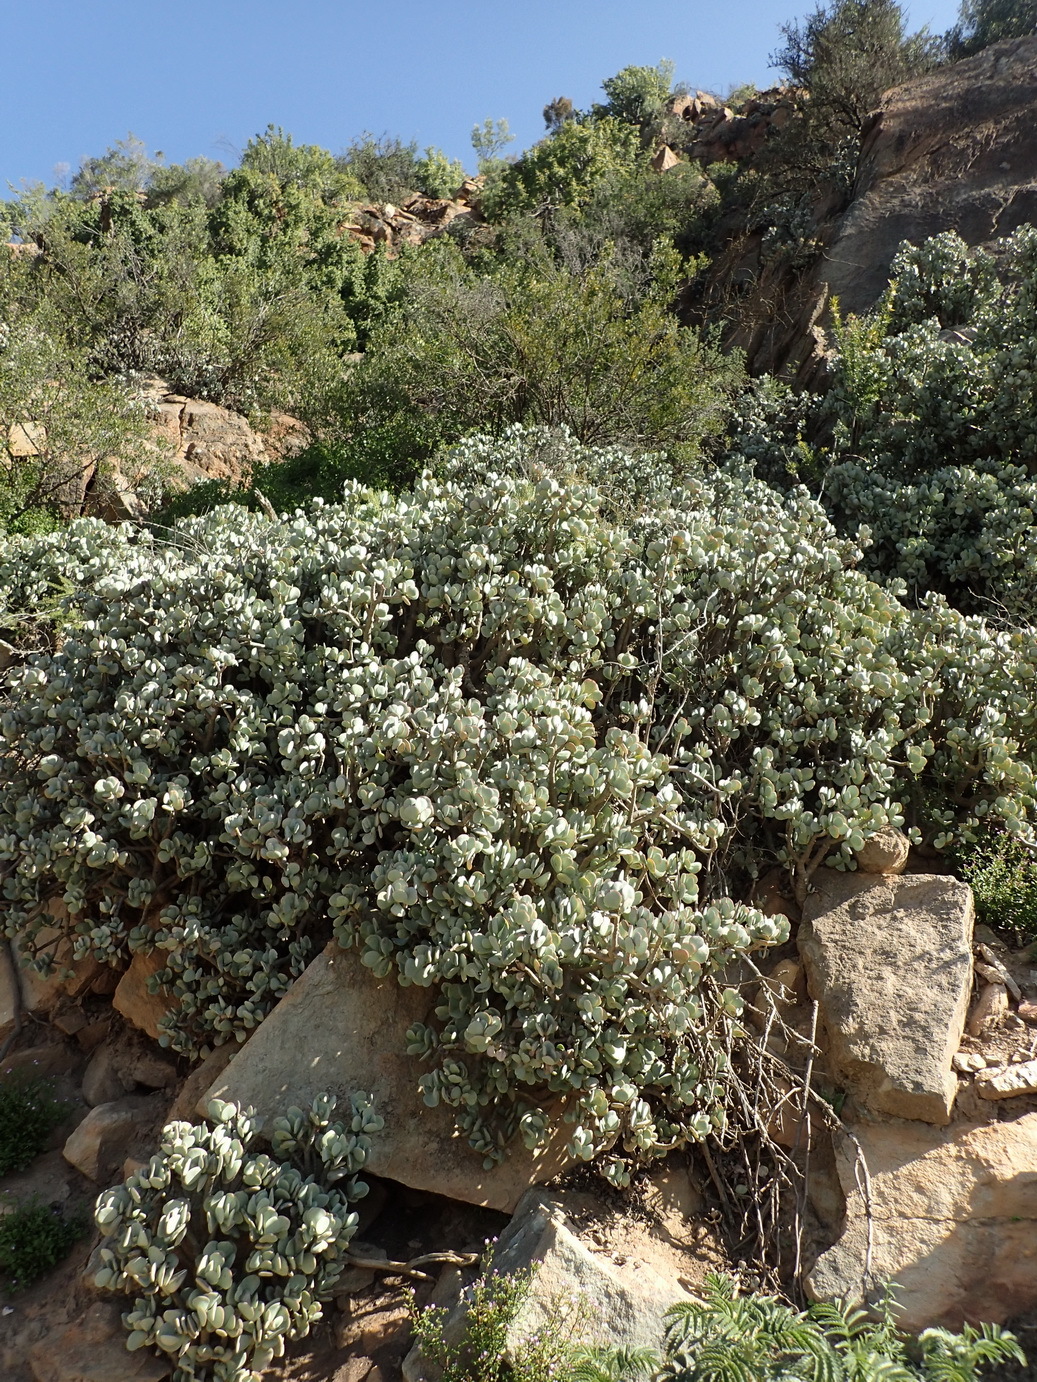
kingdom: Plantae
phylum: Tracheophyta
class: Magnoliopsida
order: Saxifragales
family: Crassulaceae
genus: Crassula
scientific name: Crassula arborescens
